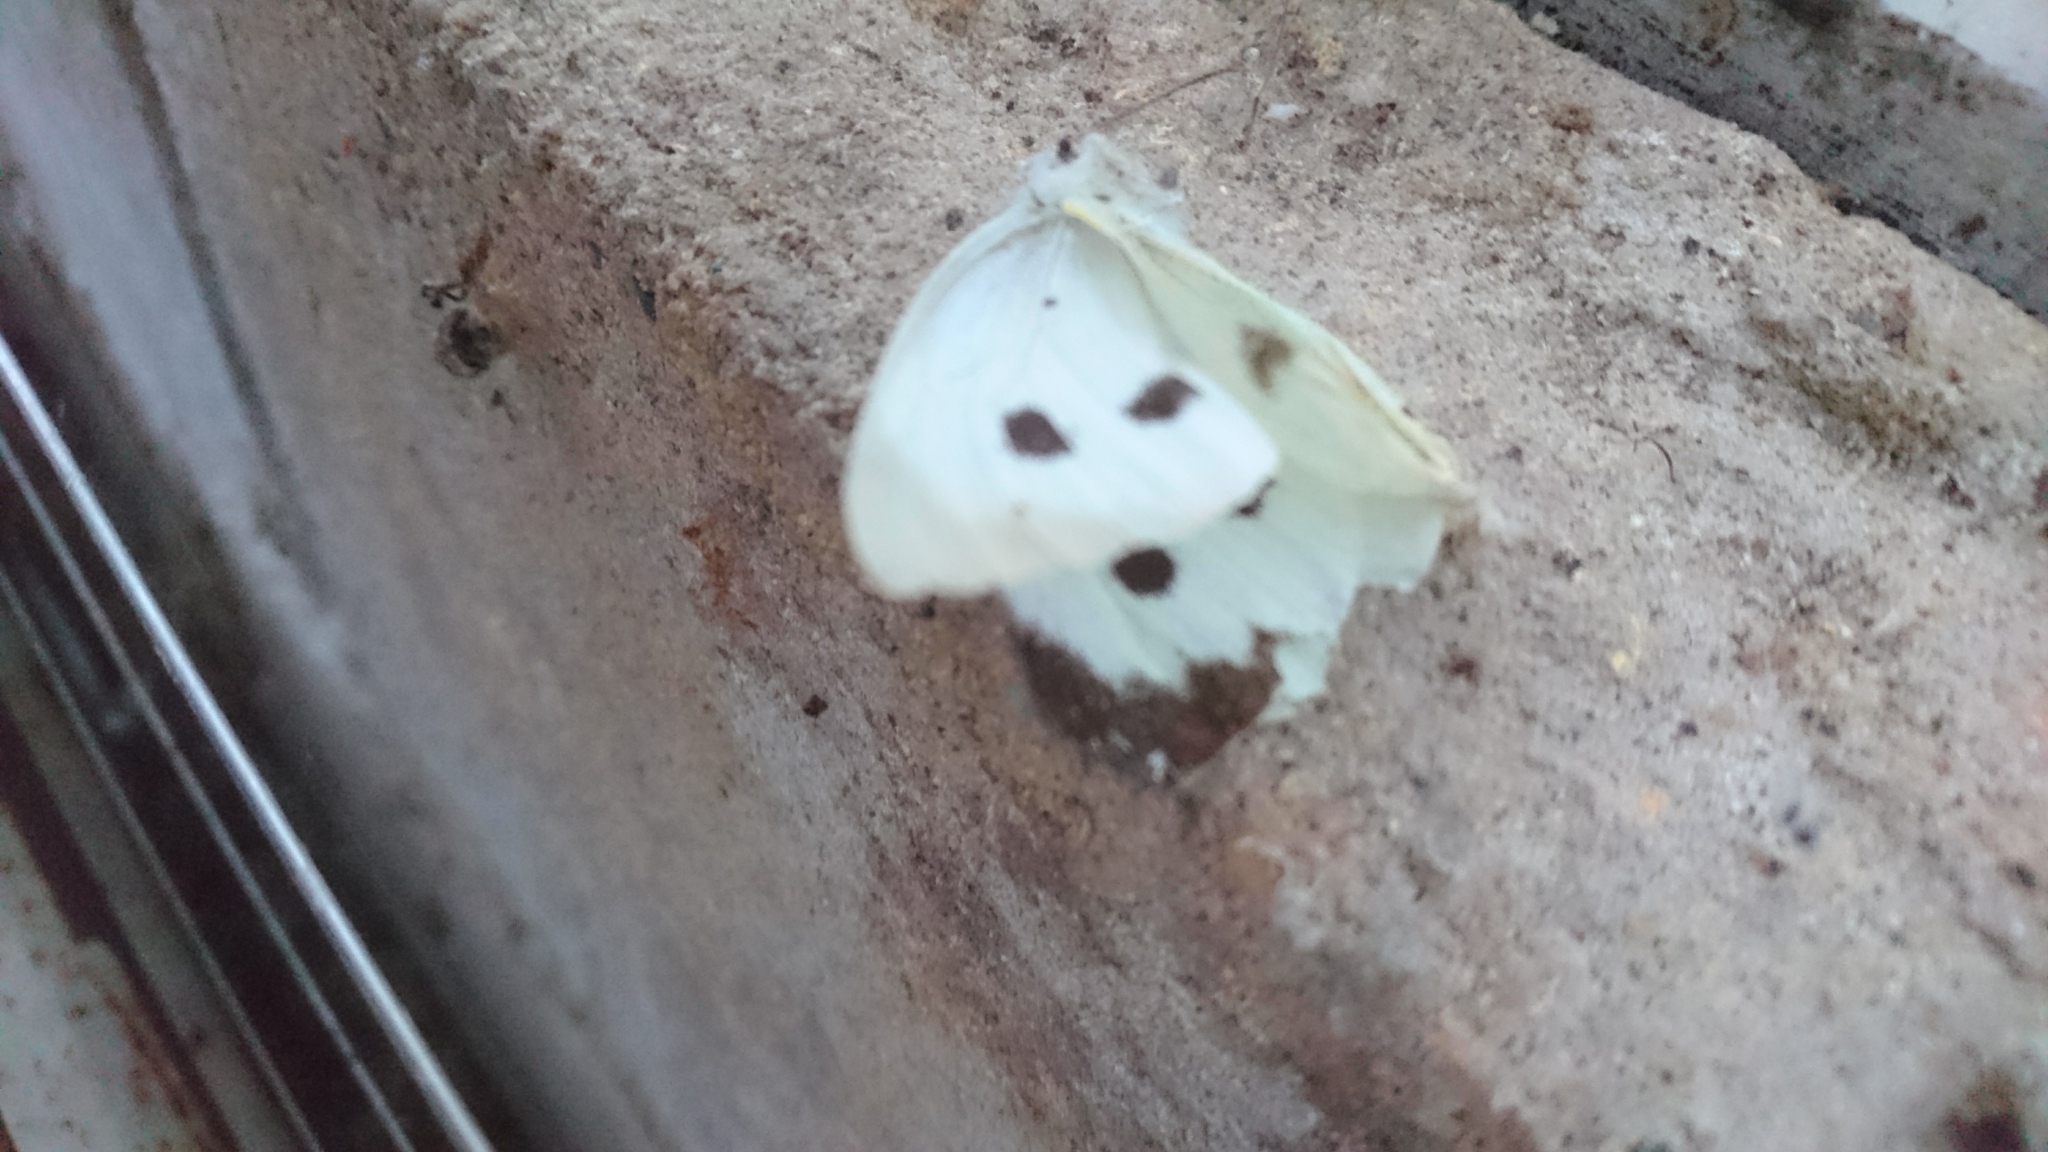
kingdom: Animalia
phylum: Arthropoda
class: Insecta
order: Lepidoptera
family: Pieridae
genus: Pieris
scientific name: Pieris brassicae
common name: Large white
